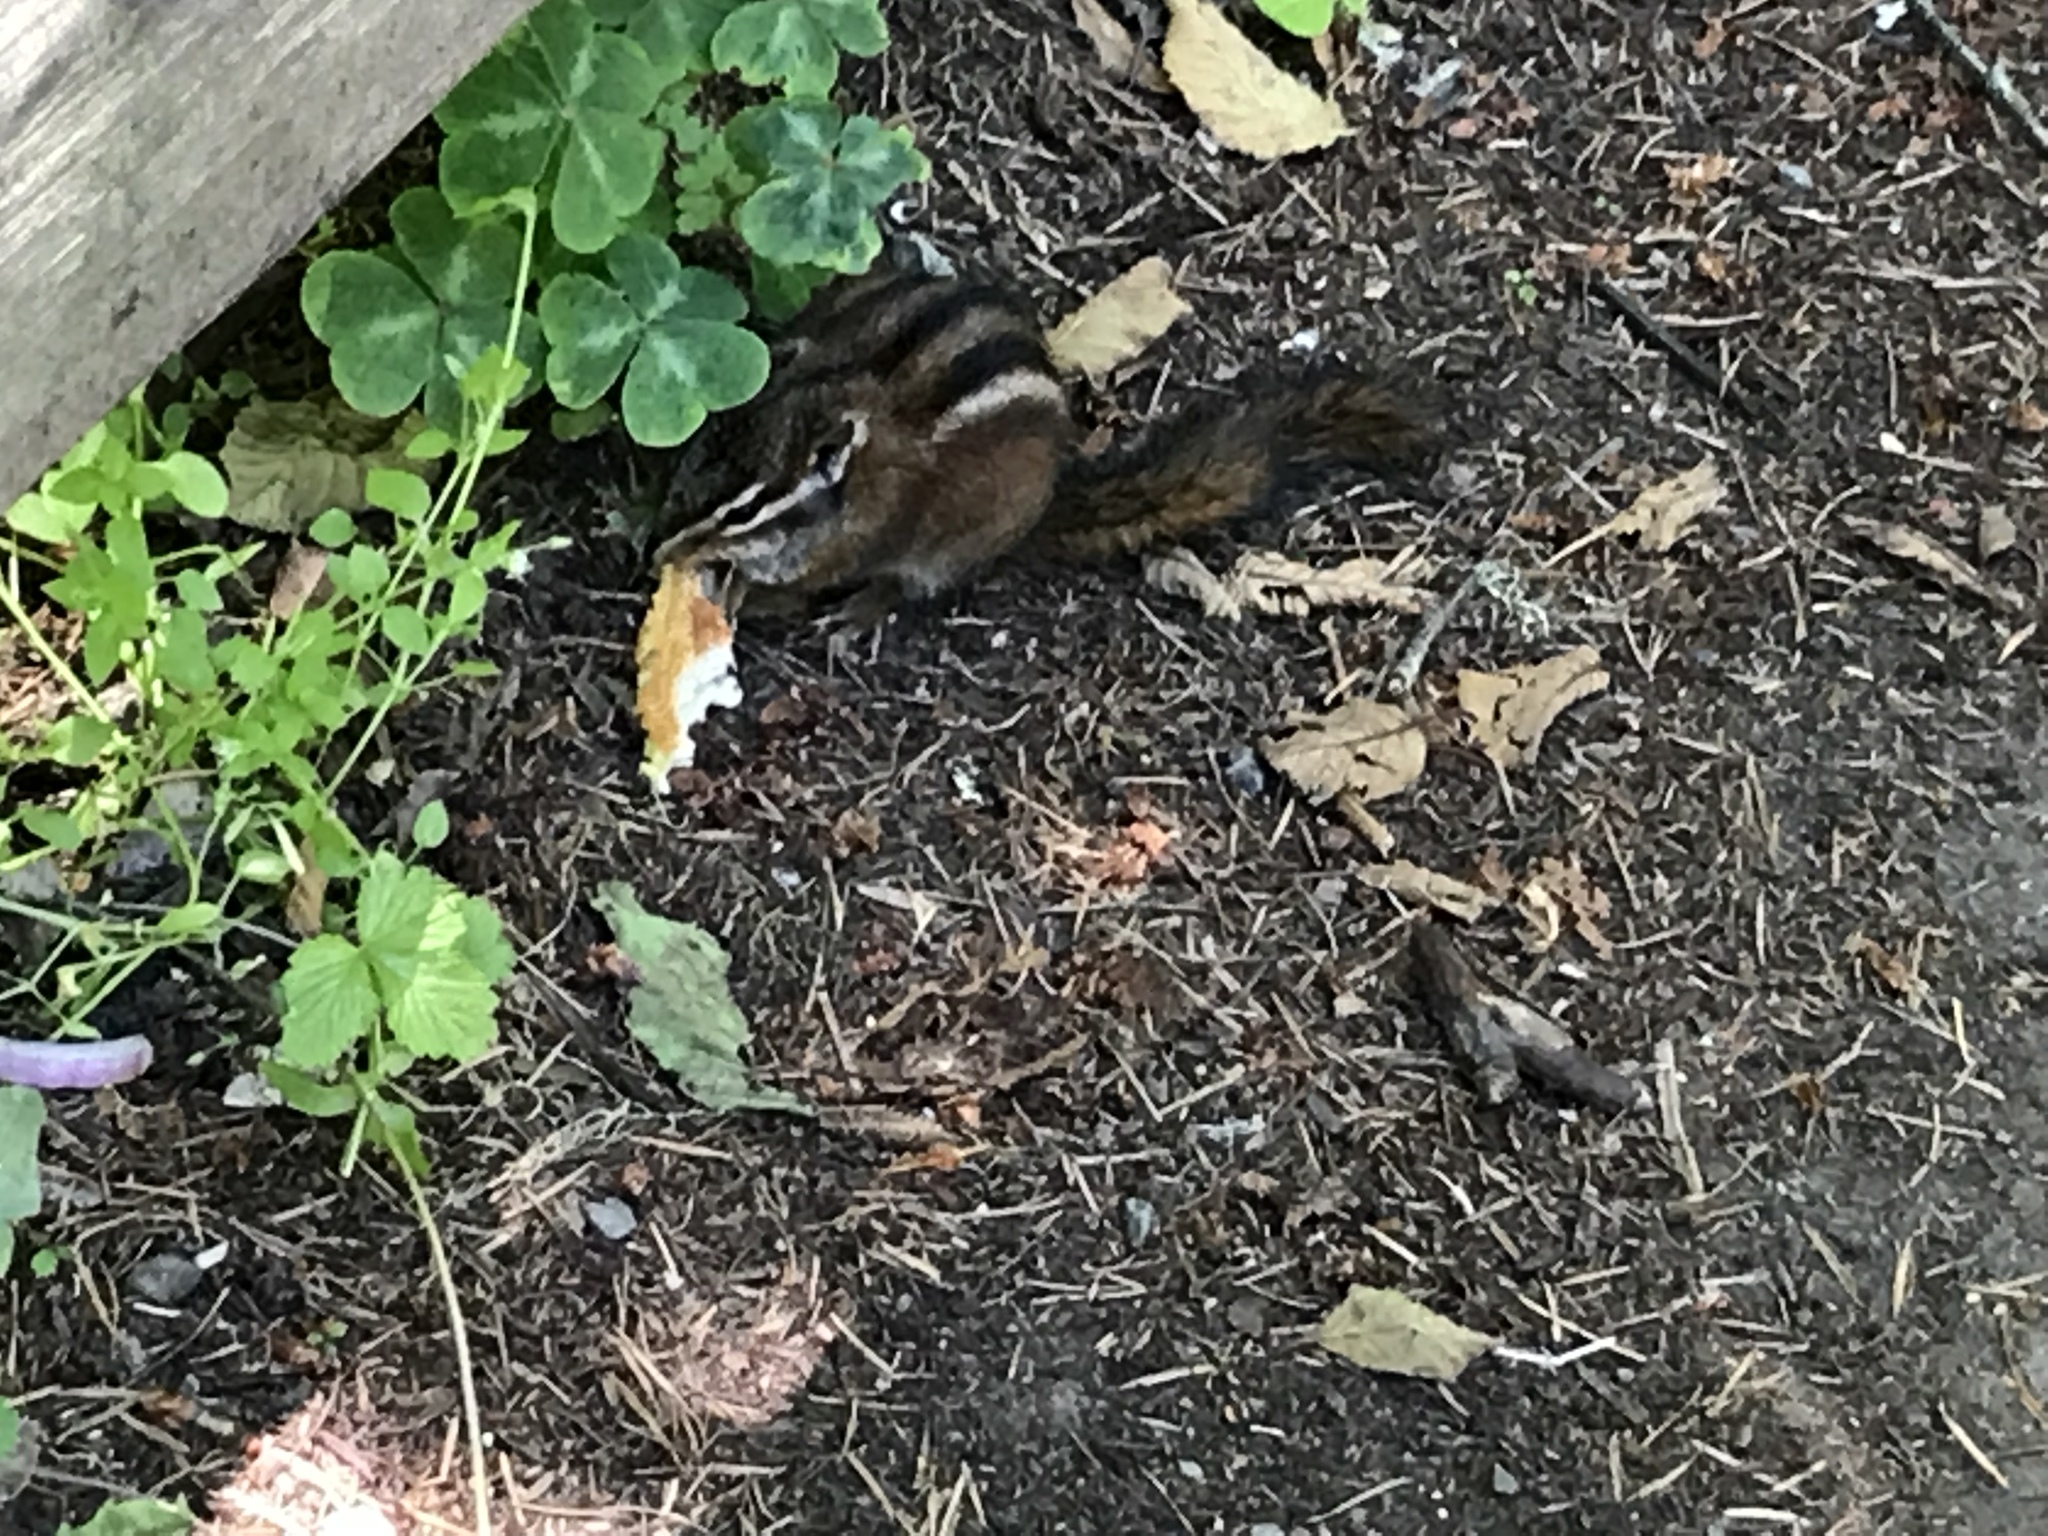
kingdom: Animalia
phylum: Chordata
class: Mammalia
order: Rodentia
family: Sciuridae
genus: Tamias
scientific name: Tamias sonomae
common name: Sonoma chipmunk
